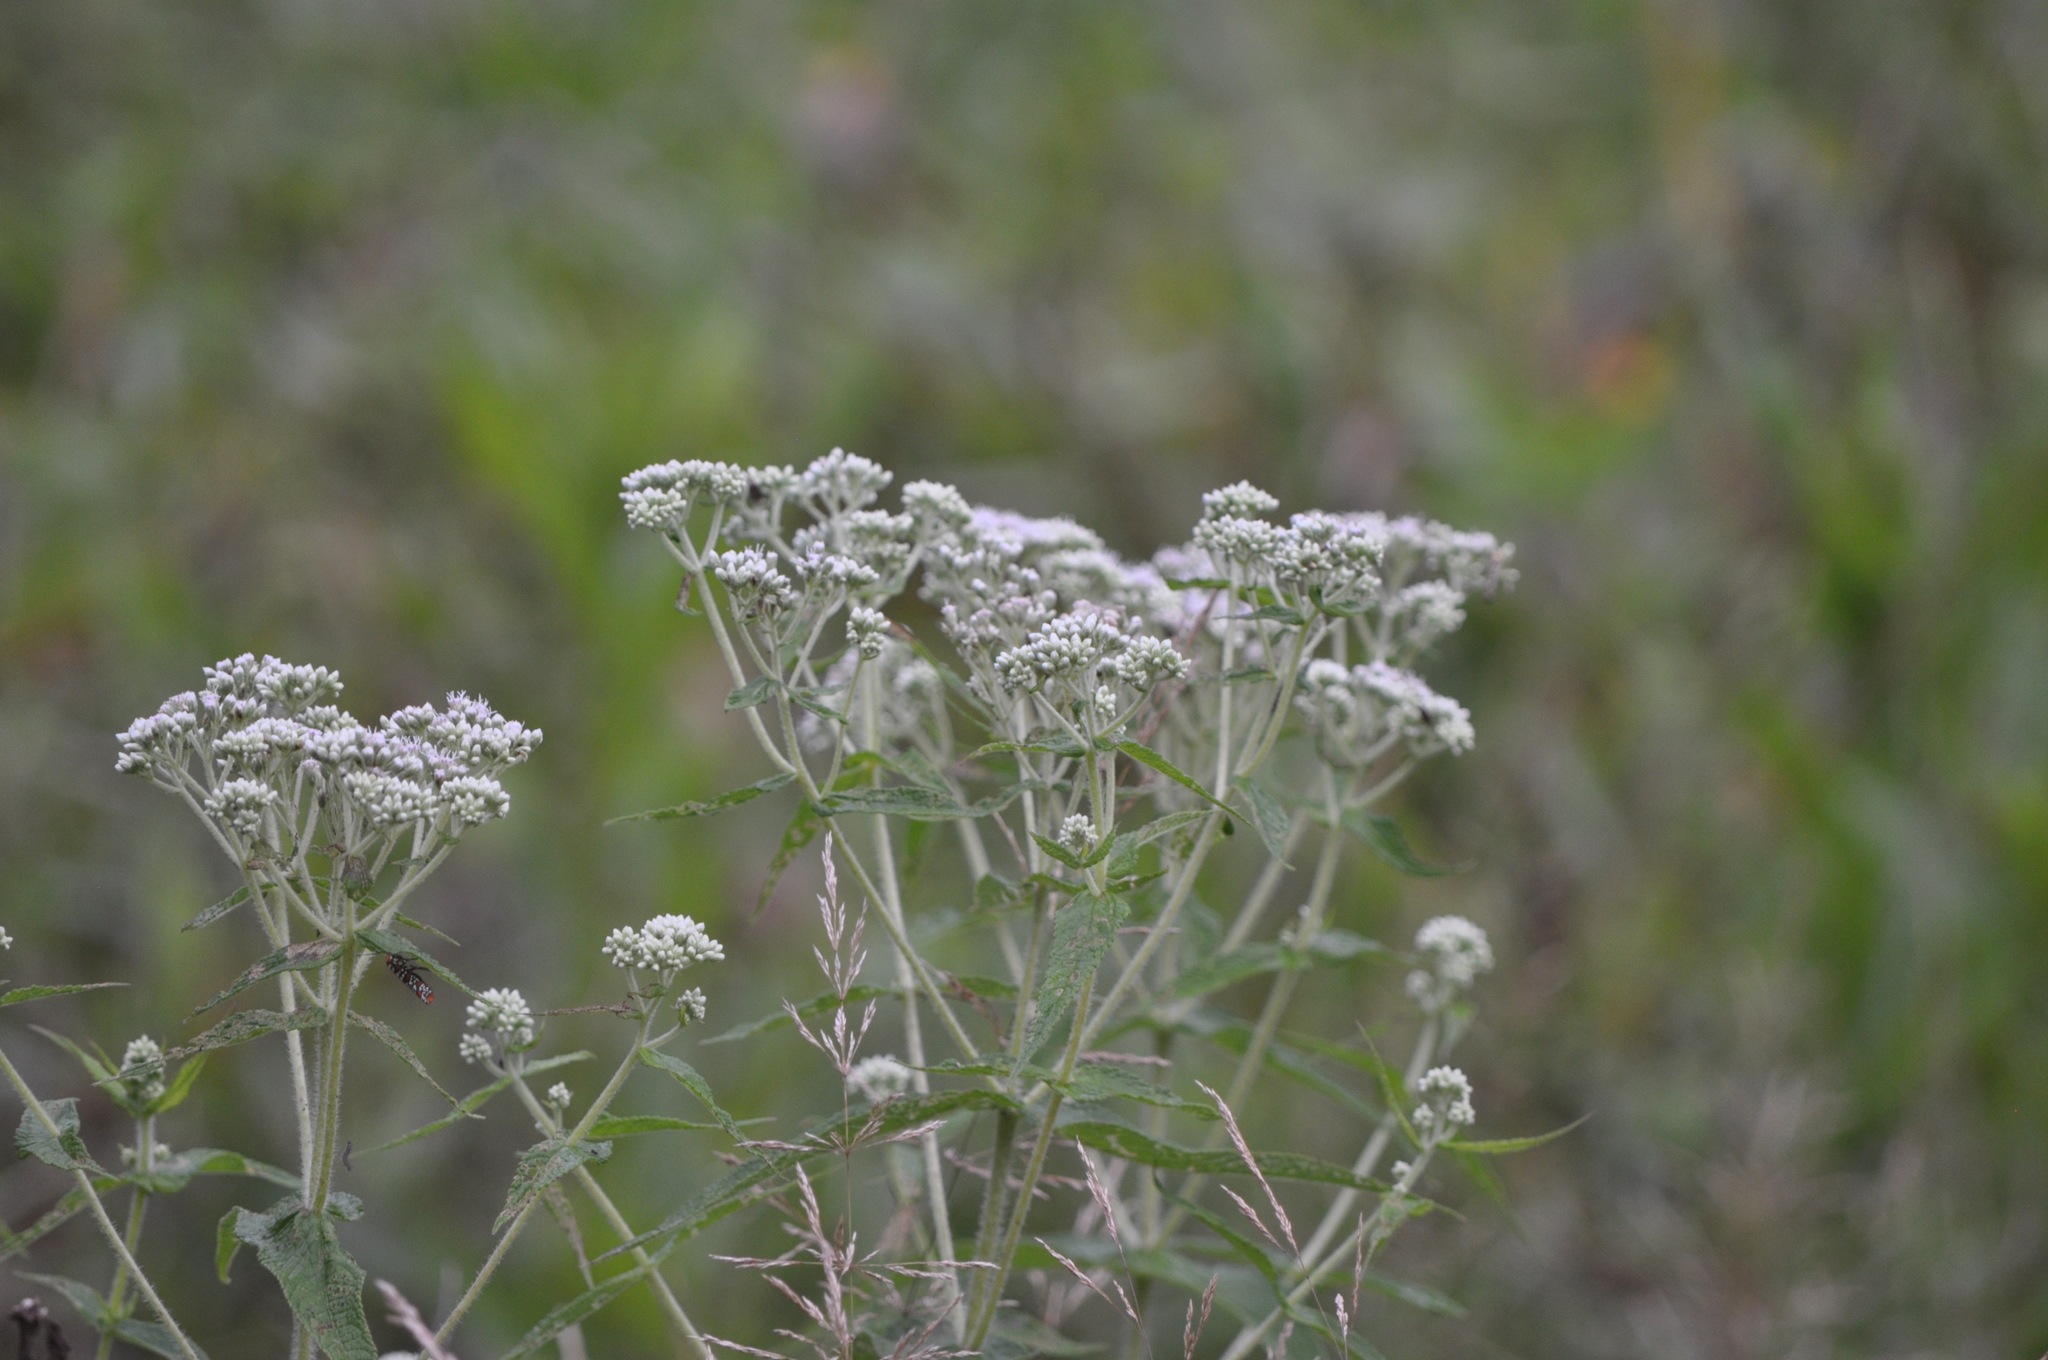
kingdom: Plantae
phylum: Tracheophyta
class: Magnoliopsida
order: Asterales
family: Asteraceae
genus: Eupatorium
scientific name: Eupatorium perfoliatum
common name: Boneset
